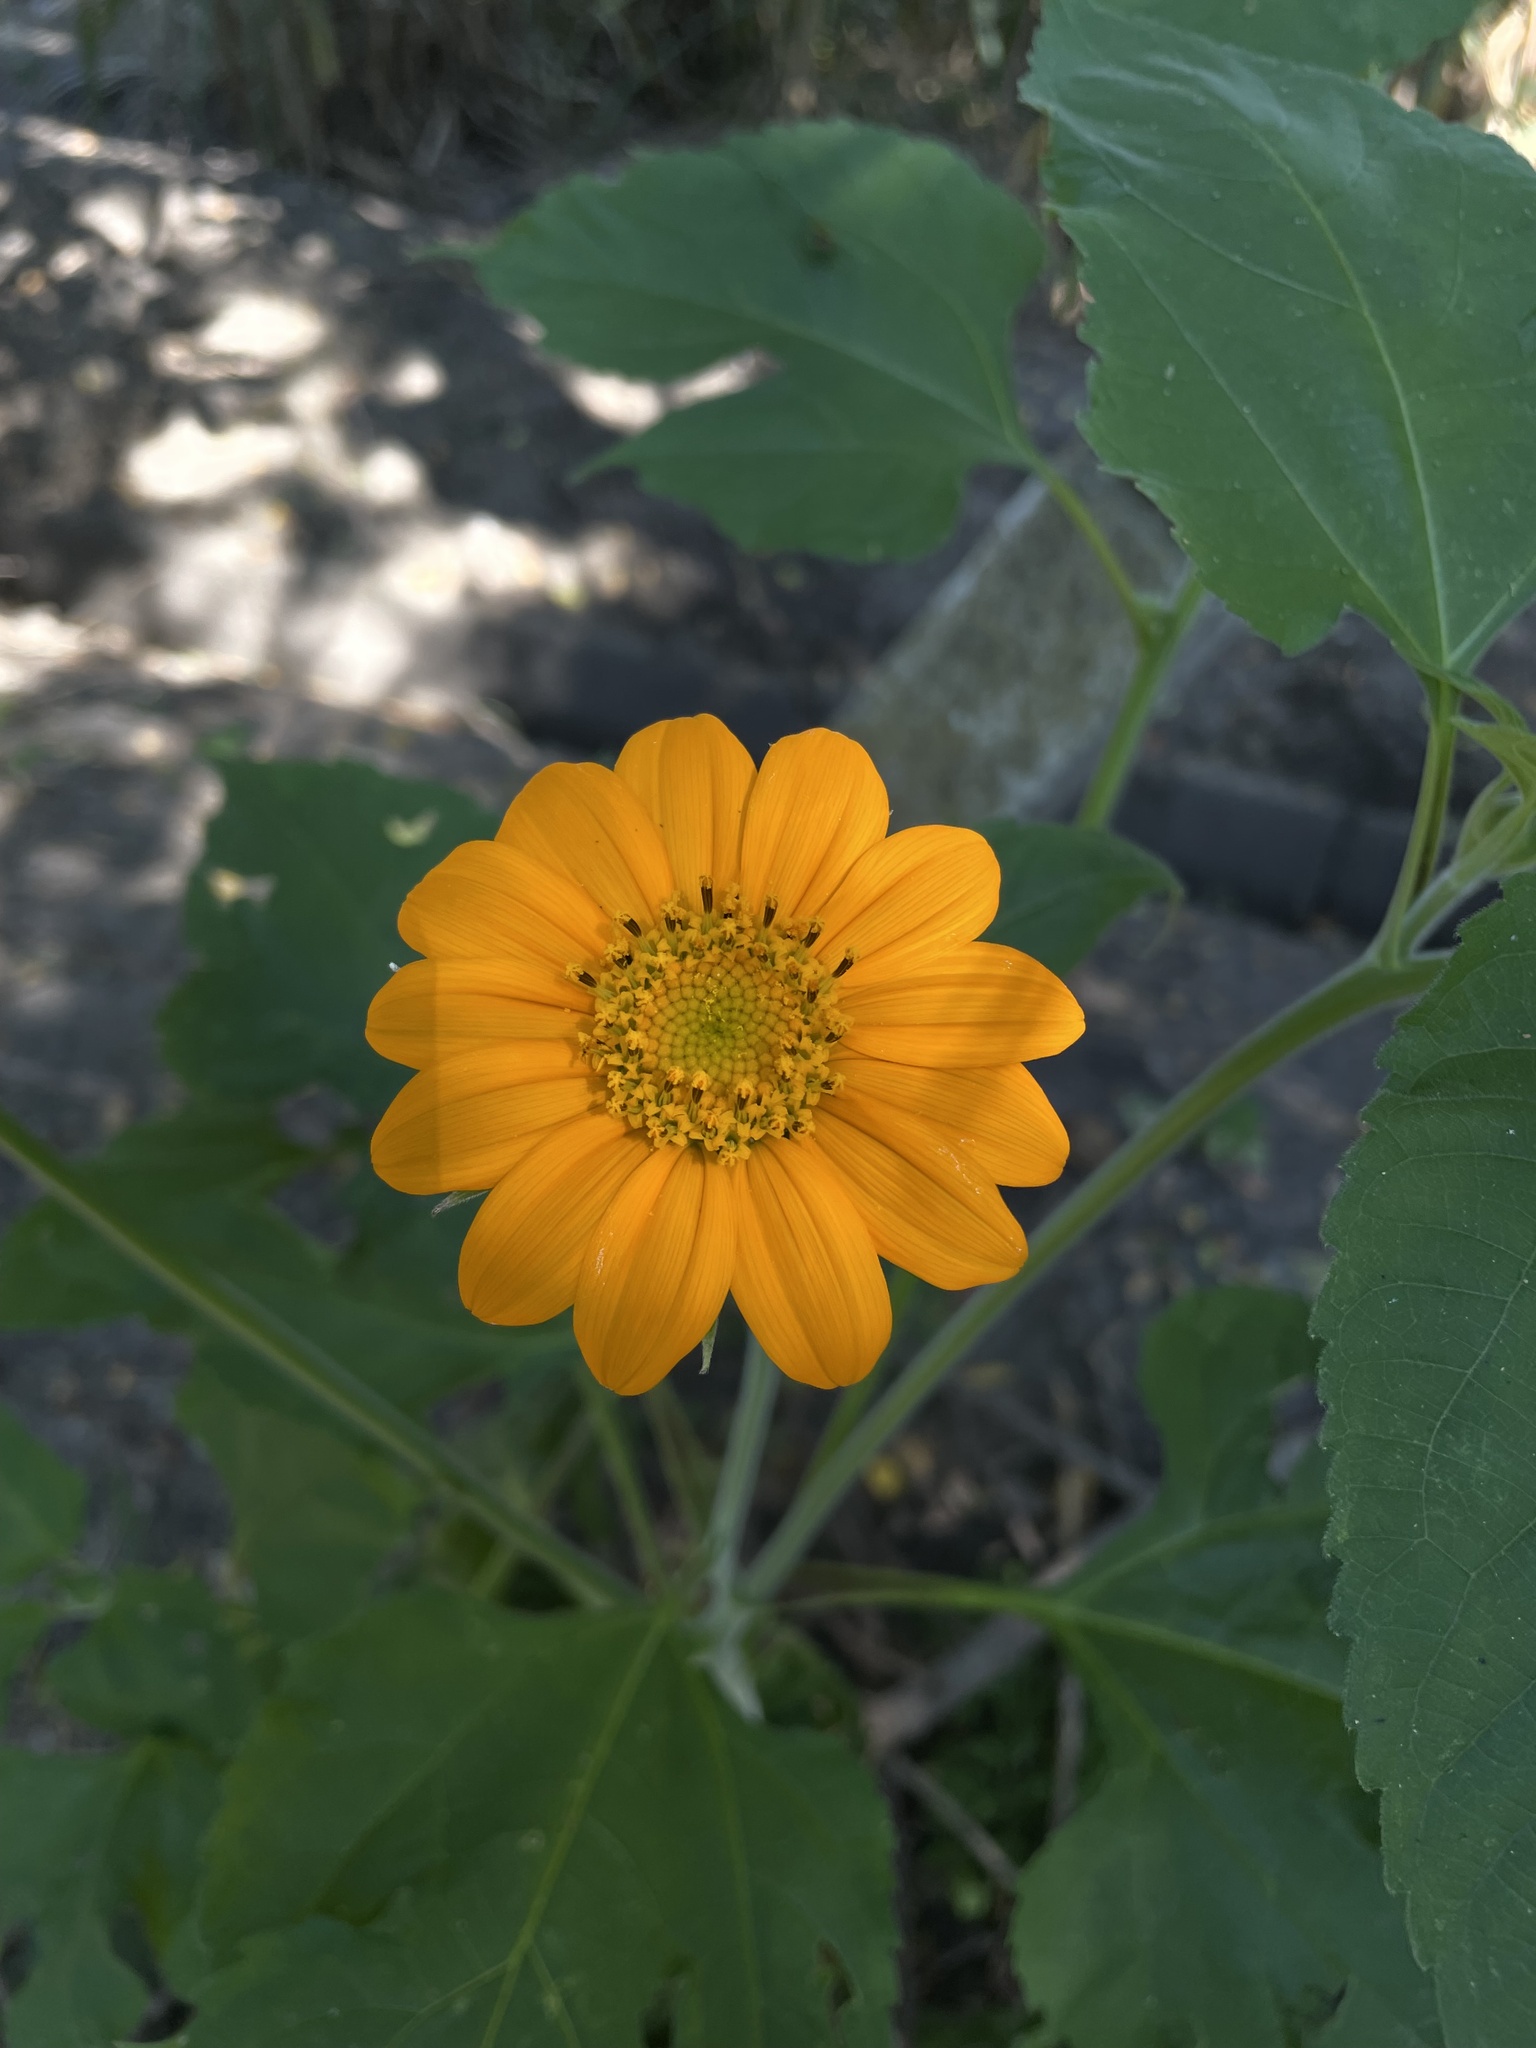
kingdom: Plantae
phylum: Tracheophyta
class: Magnoliopsida
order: Asterales
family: Asteraceae
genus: Tithonia
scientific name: Tithonia rotundifolia
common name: Sunflower
